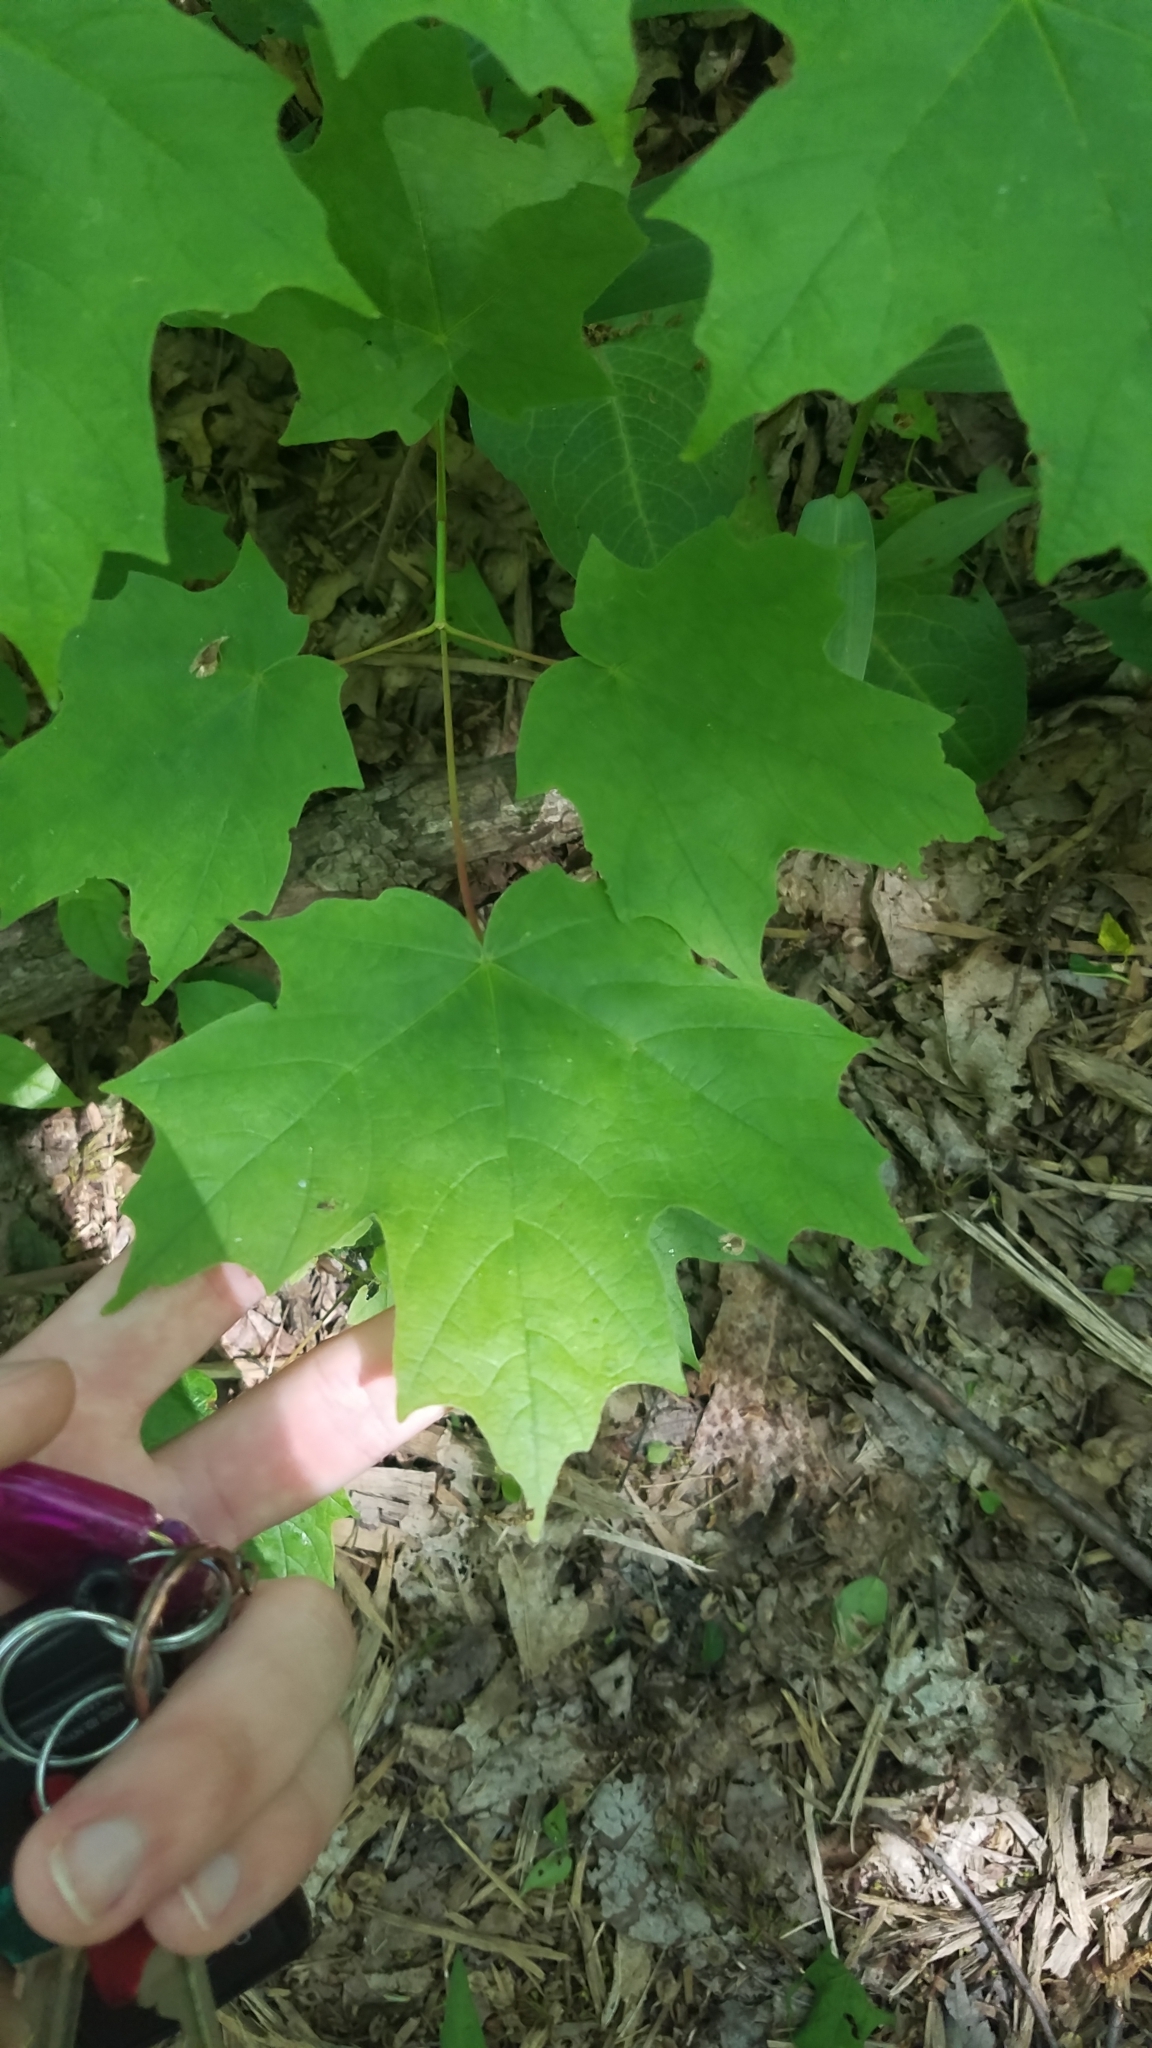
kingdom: Plantae
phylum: Tracheophyta
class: Magnoliopsida
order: Sapindales
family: Sapindaceae
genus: Acer
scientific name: Acer saccharum
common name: Sugar maple
